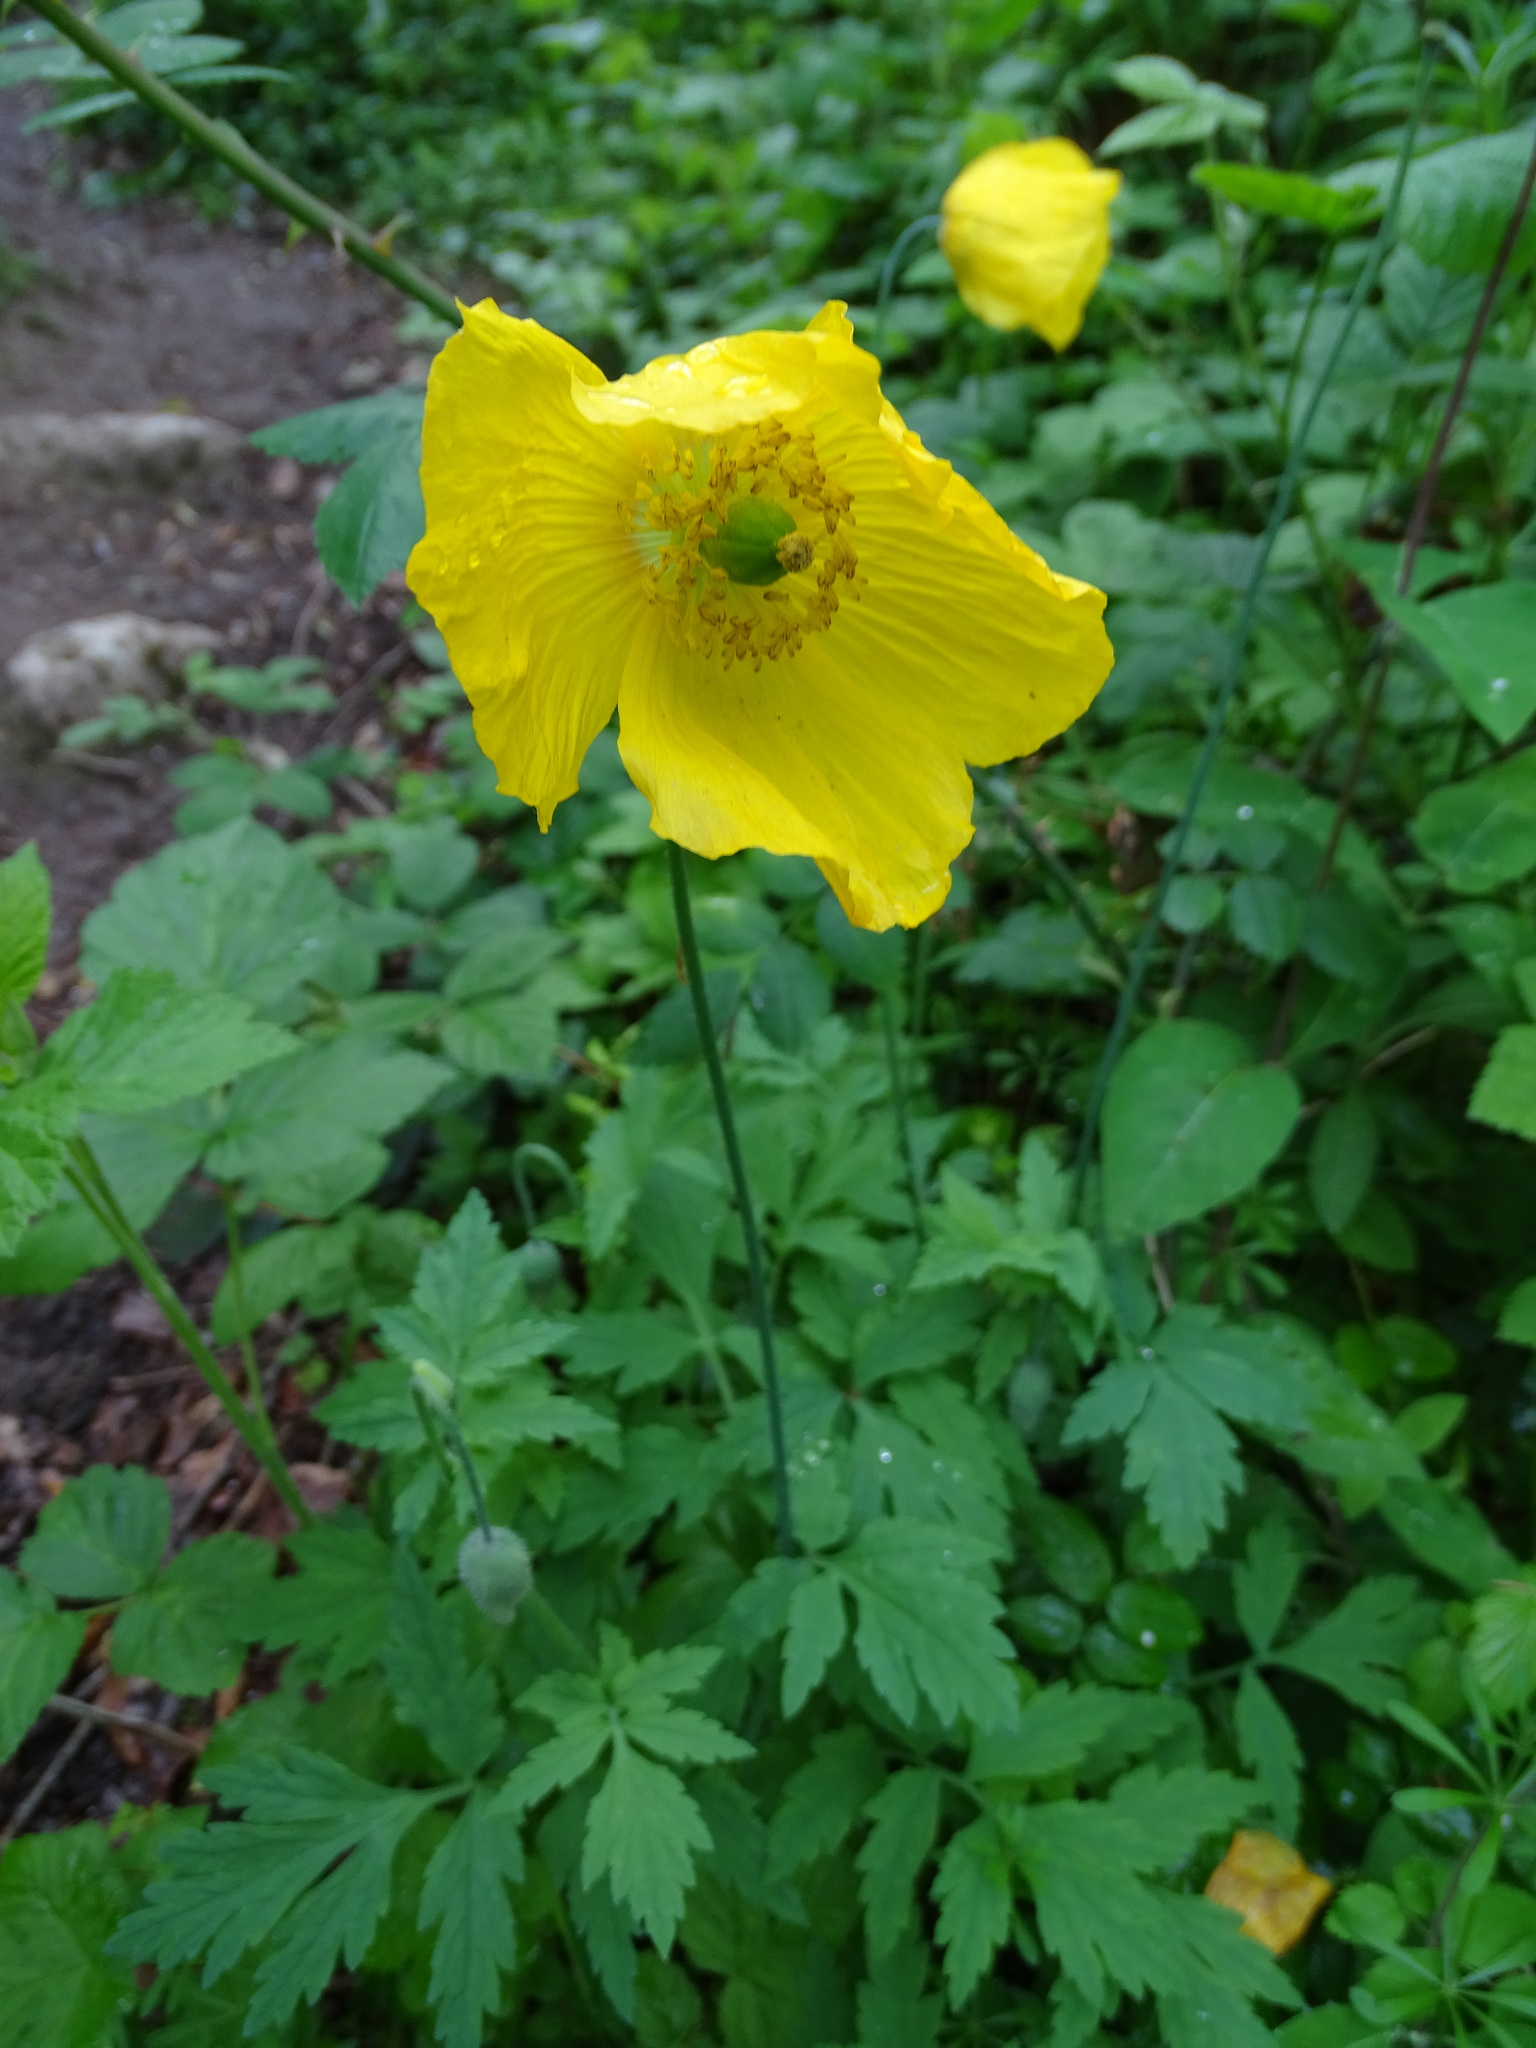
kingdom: Plantae
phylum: Tracheophyta
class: Magnoliopsida
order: Ranunculales
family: Papaveraceae
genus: Papaver
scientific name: Papaver cambricum
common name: Poppy
